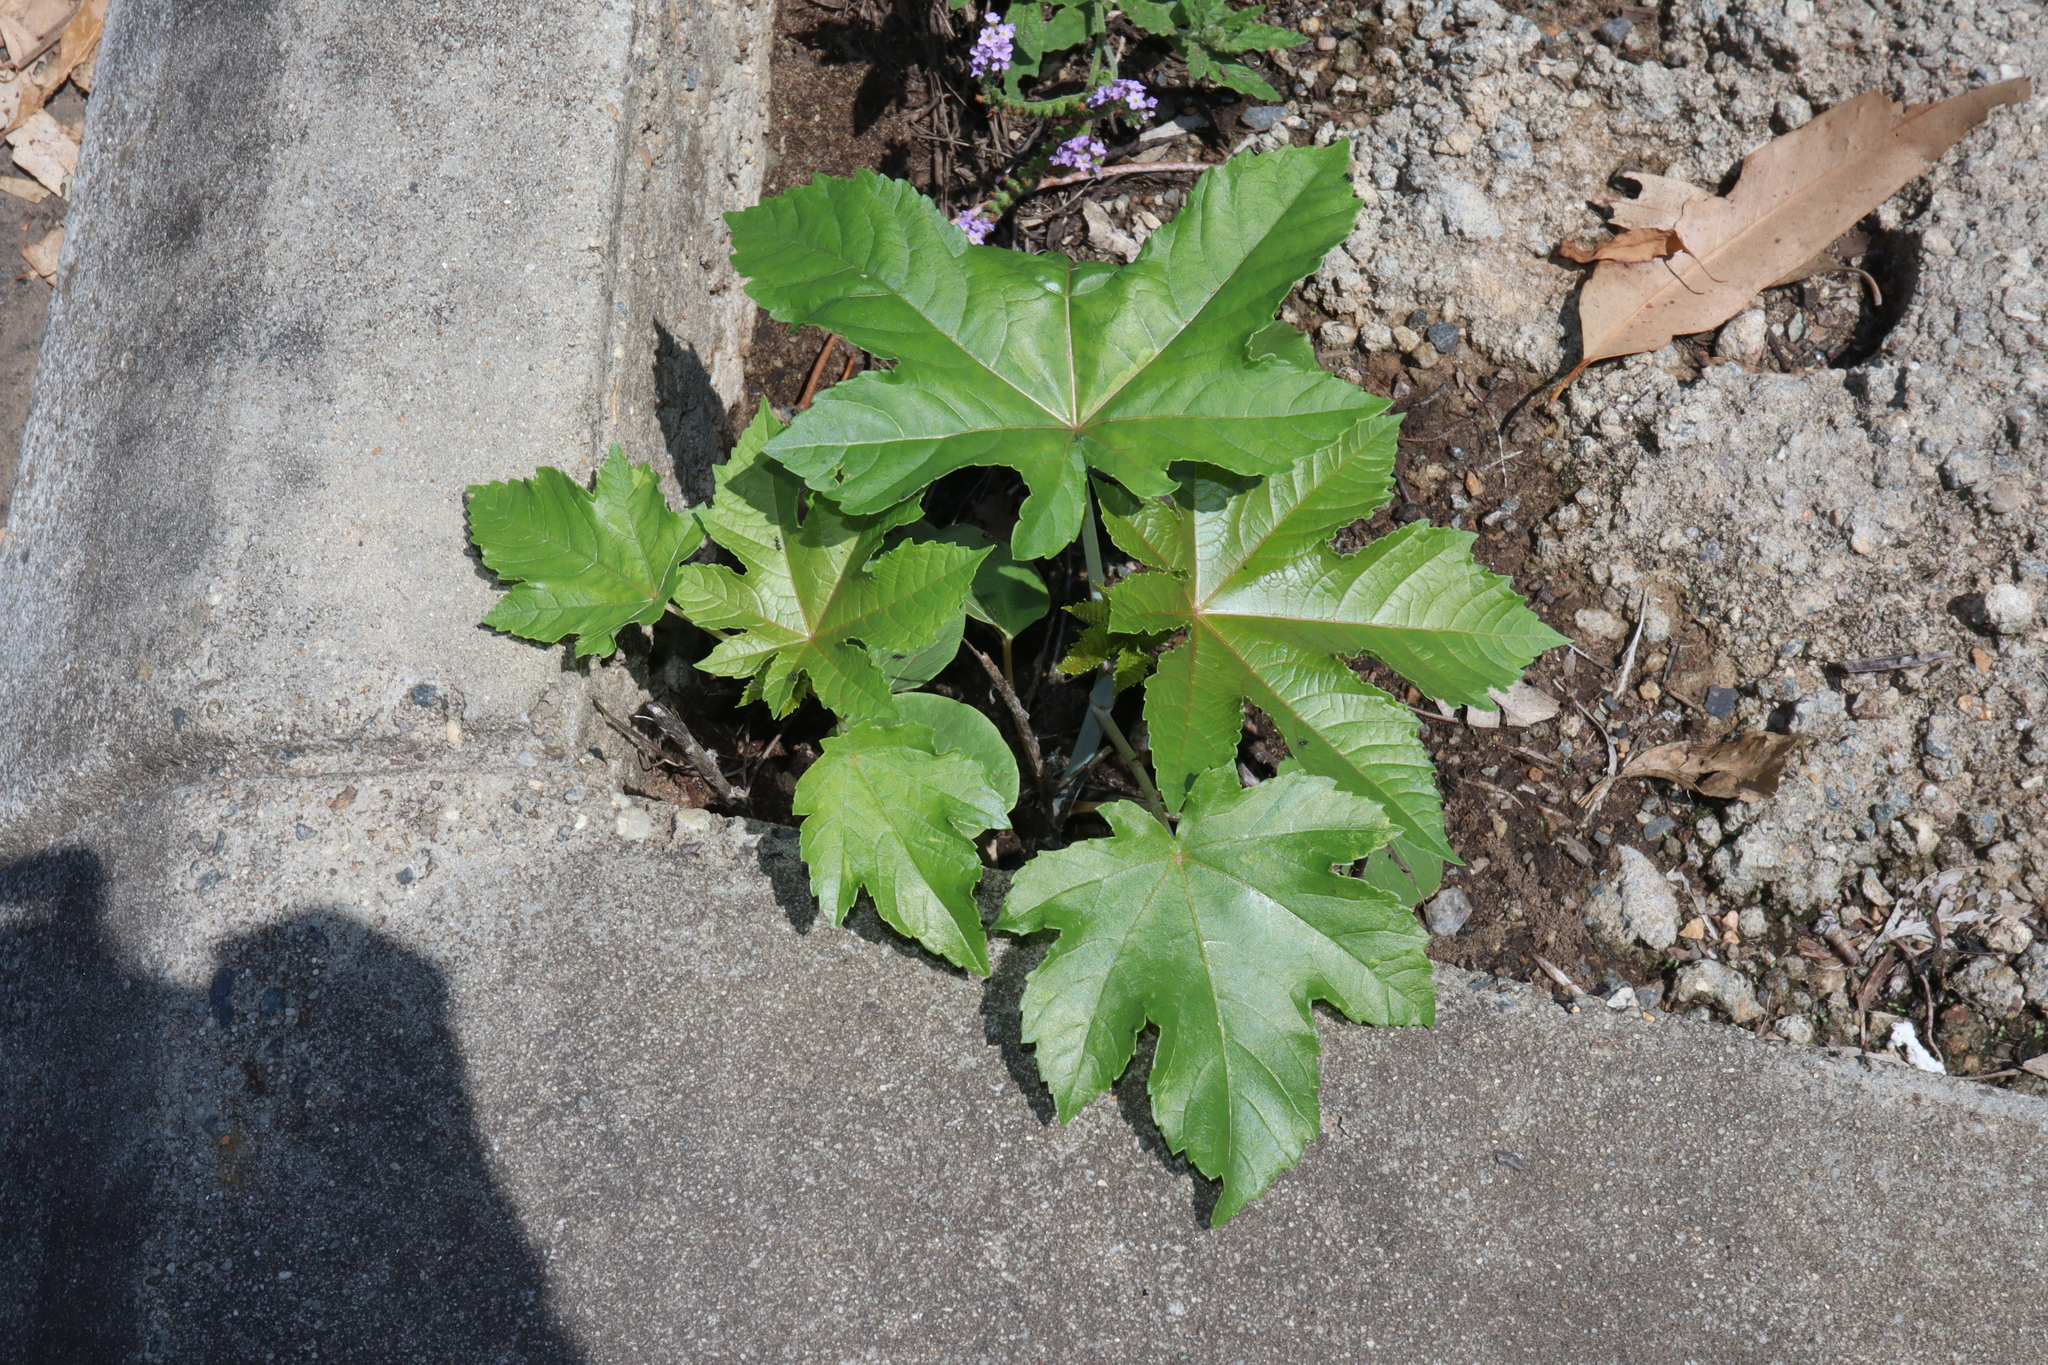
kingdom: Plantae
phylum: Tracheophyta
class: Magnoliopsida
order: Malpighiales
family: Euphorbiaceae
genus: Ricinus
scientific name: Ricinus communis
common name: Castor-oil-plant
